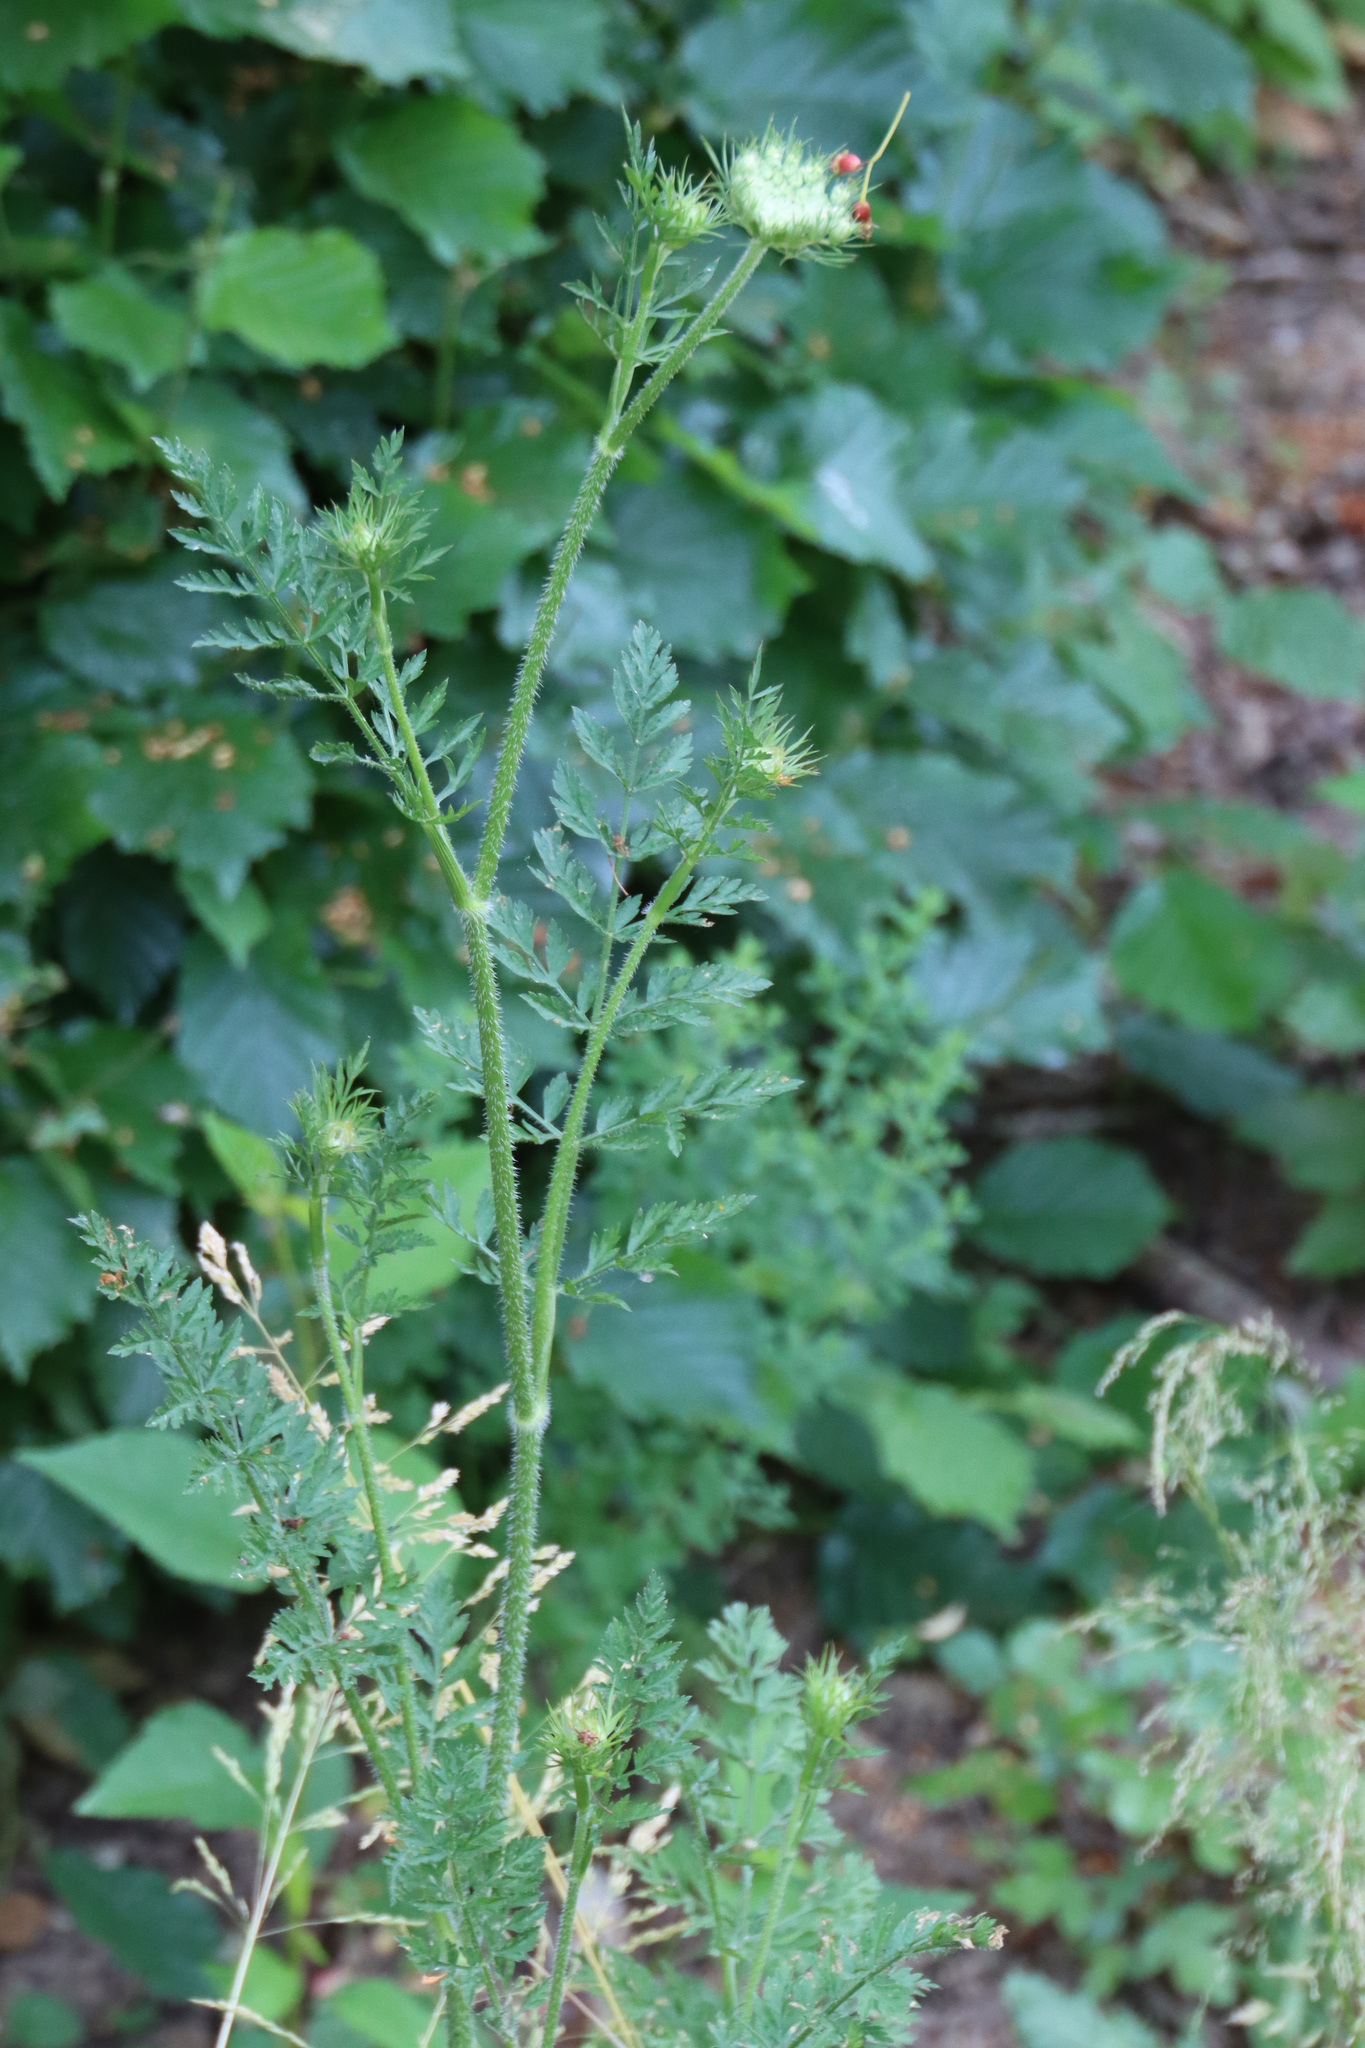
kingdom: Plantae
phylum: Tracheophyta
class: Magnoliopsida
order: Apiales
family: Apiaceae
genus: Daucus
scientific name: Daucus carota
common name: Wild carrot
